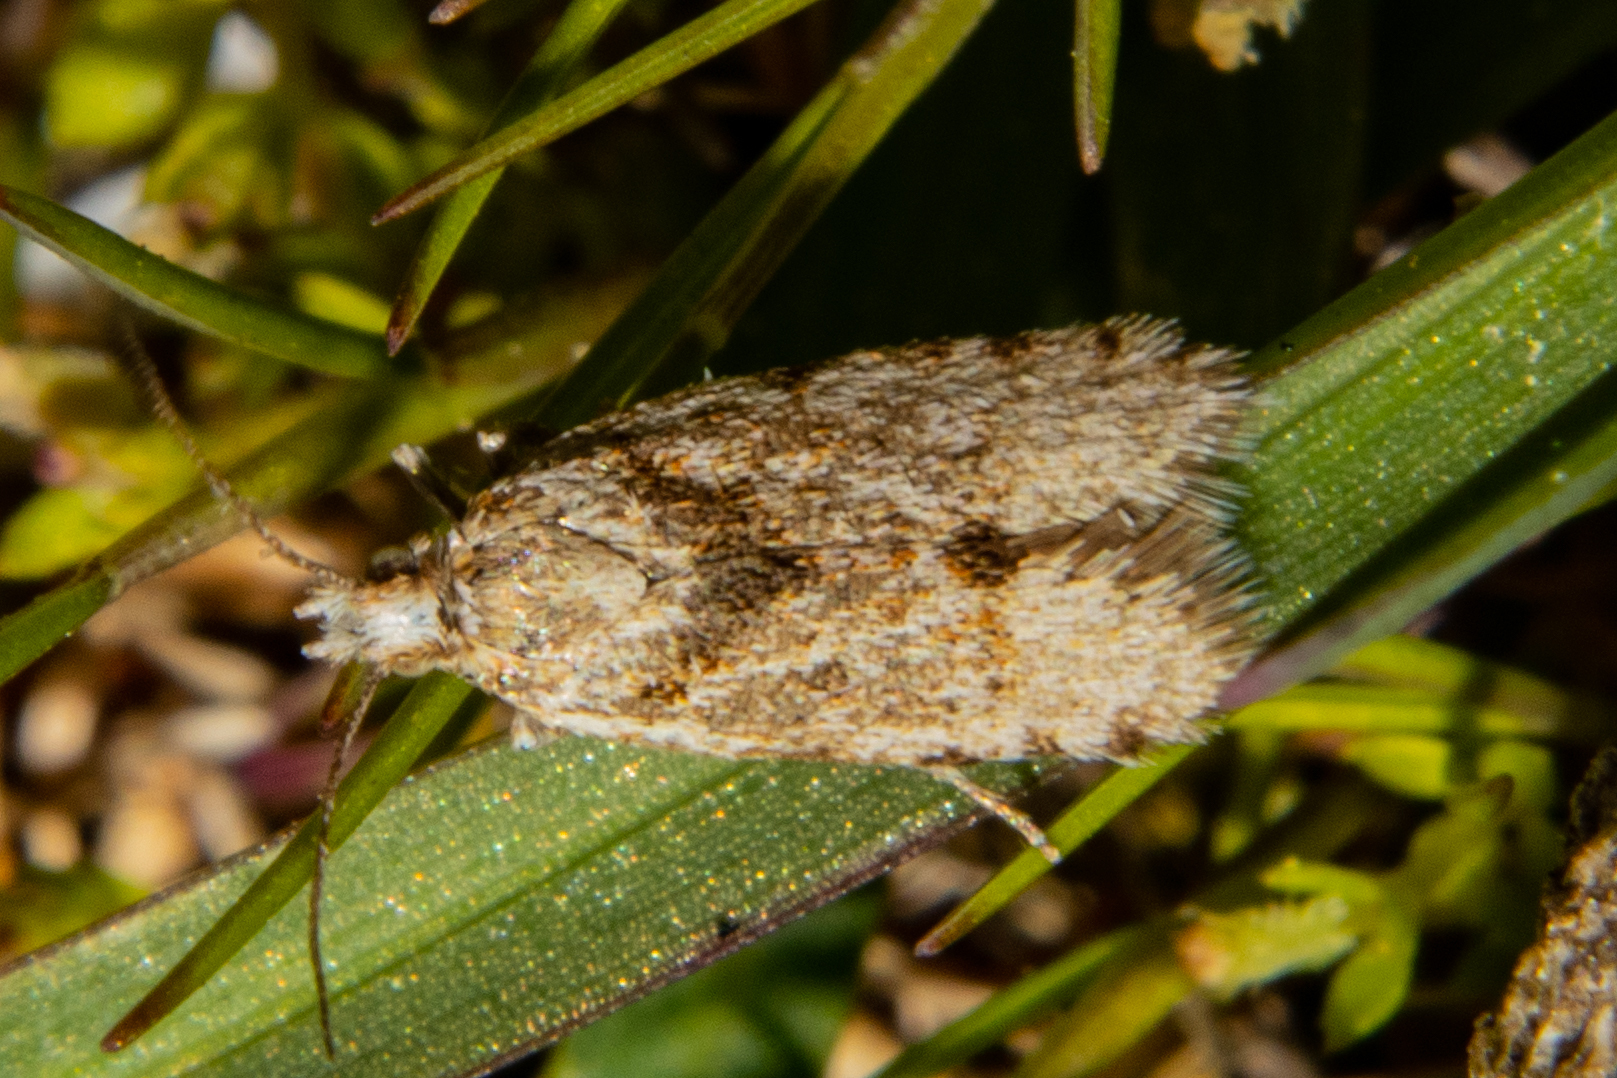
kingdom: Animalia
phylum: Arthropoda
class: Insecta
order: Lepidoptera
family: Tortricidae
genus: Eurythecta
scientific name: Eurythecta zelaea
